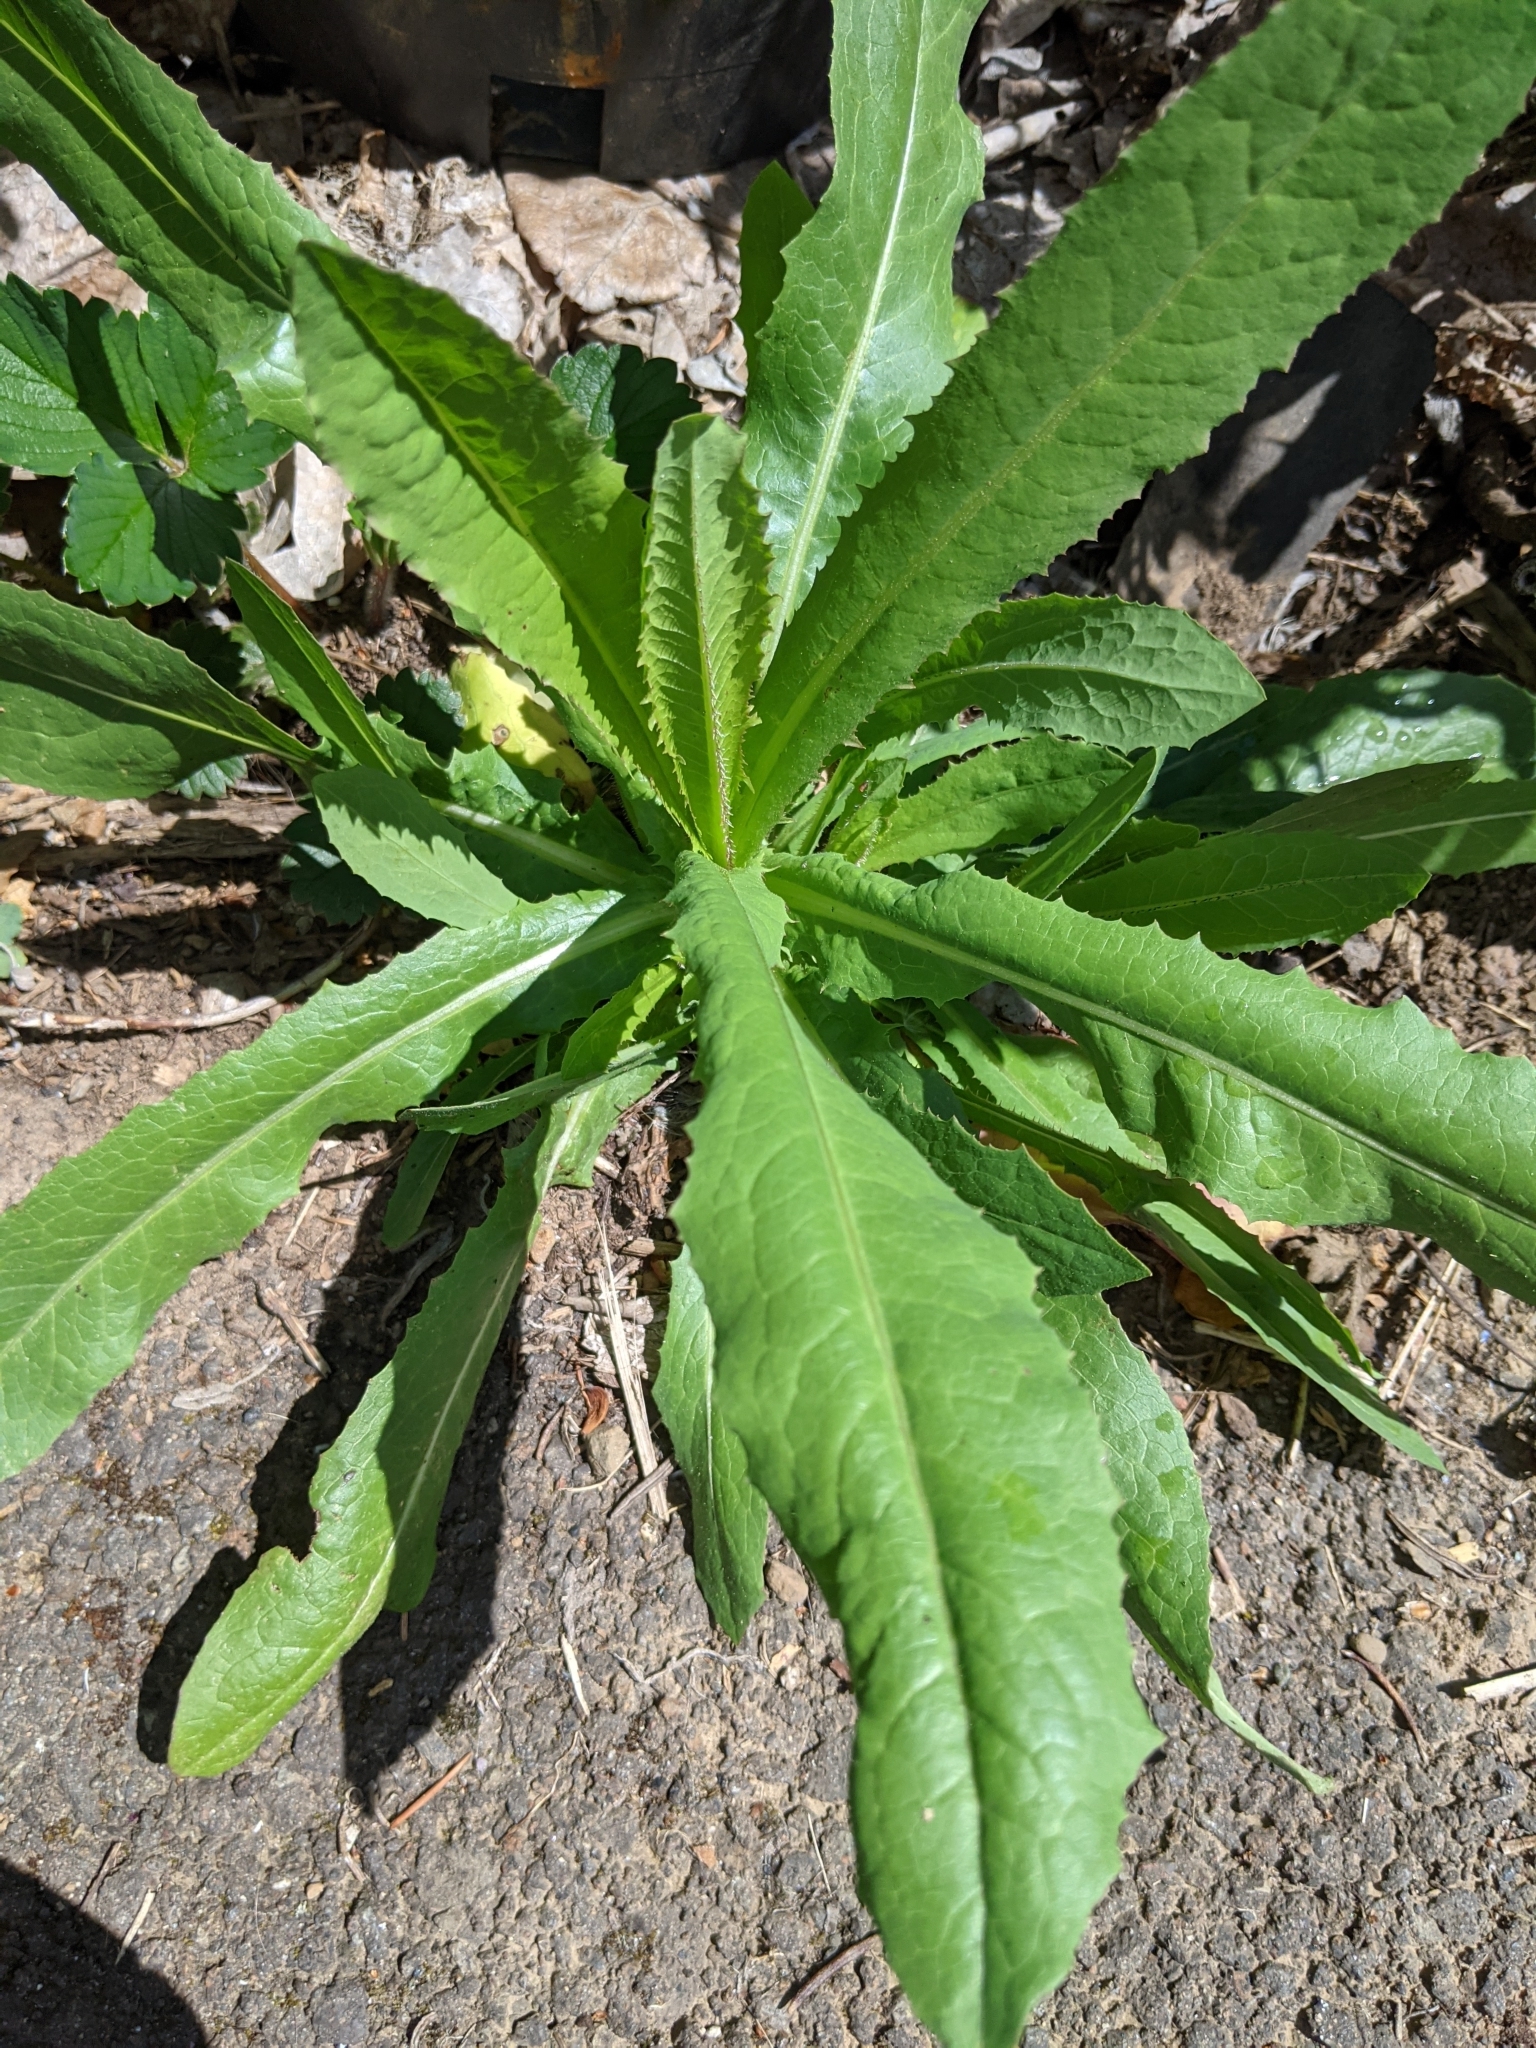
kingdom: Plantae
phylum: Tracheophyta
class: Magnoliopsida
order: Asterales
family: Asteraceae
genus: Lactuca
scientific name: Lactuca serriola
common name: Prickly lettuce
